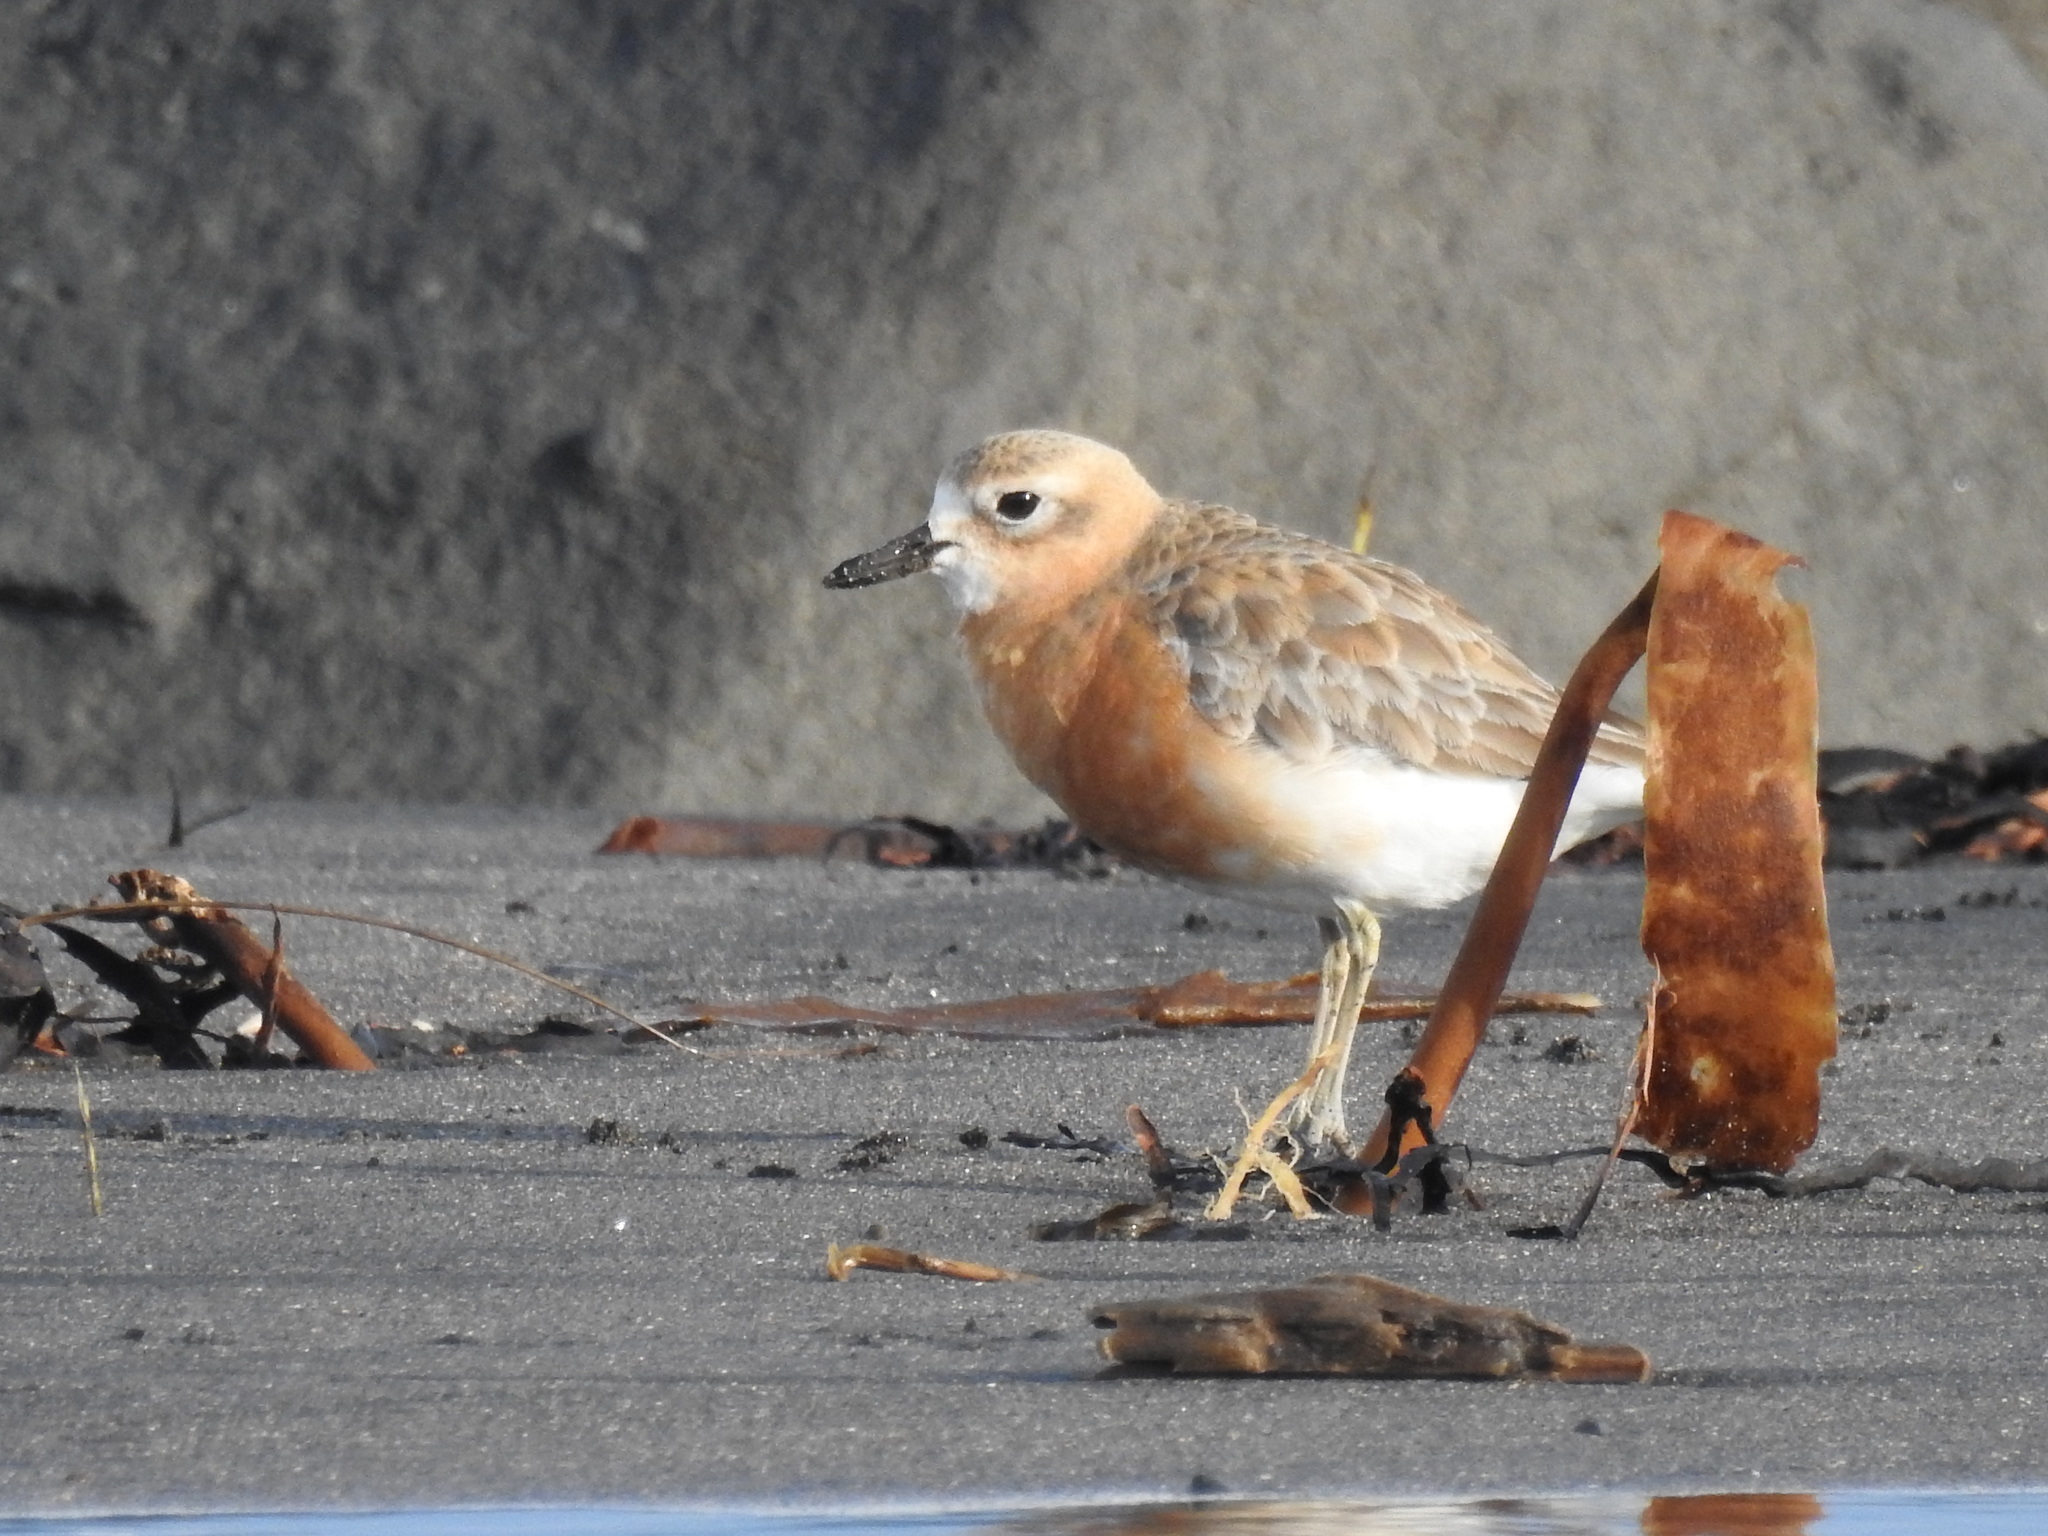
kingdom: Animalia
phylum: Chordata
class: Aves
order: Charadriiformes
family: Charadriidae
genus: Anarhynchus
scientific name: Anarhynchus
